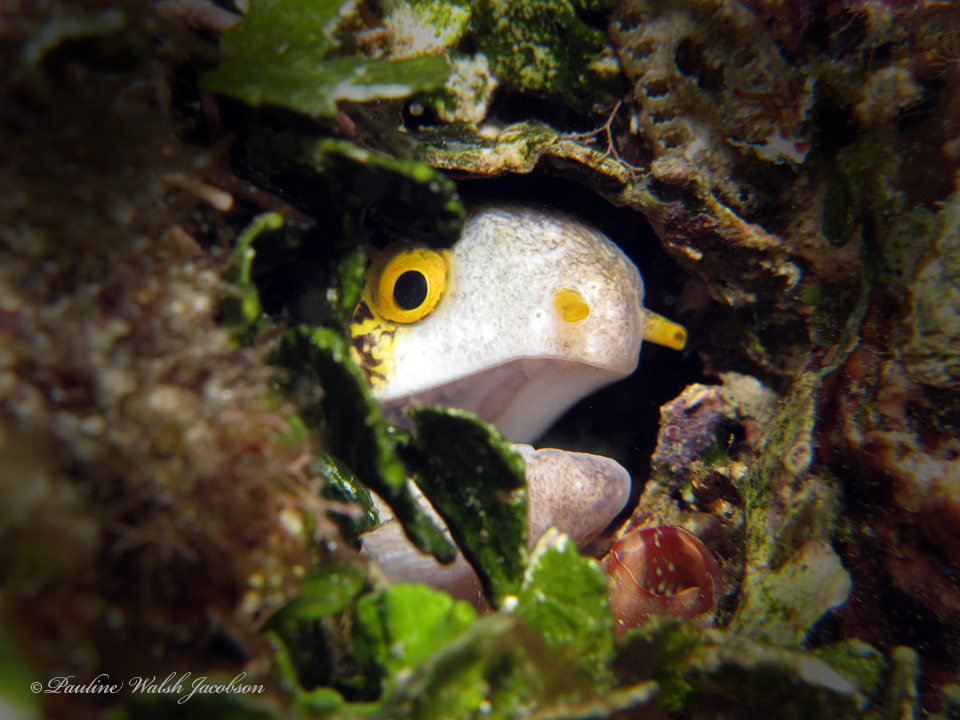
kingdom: Animalia
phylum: Chordata
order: Anguilliformes
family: Muraenidae
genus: Echidna
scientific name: Echidna nebulosa
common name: Snowflake moray
